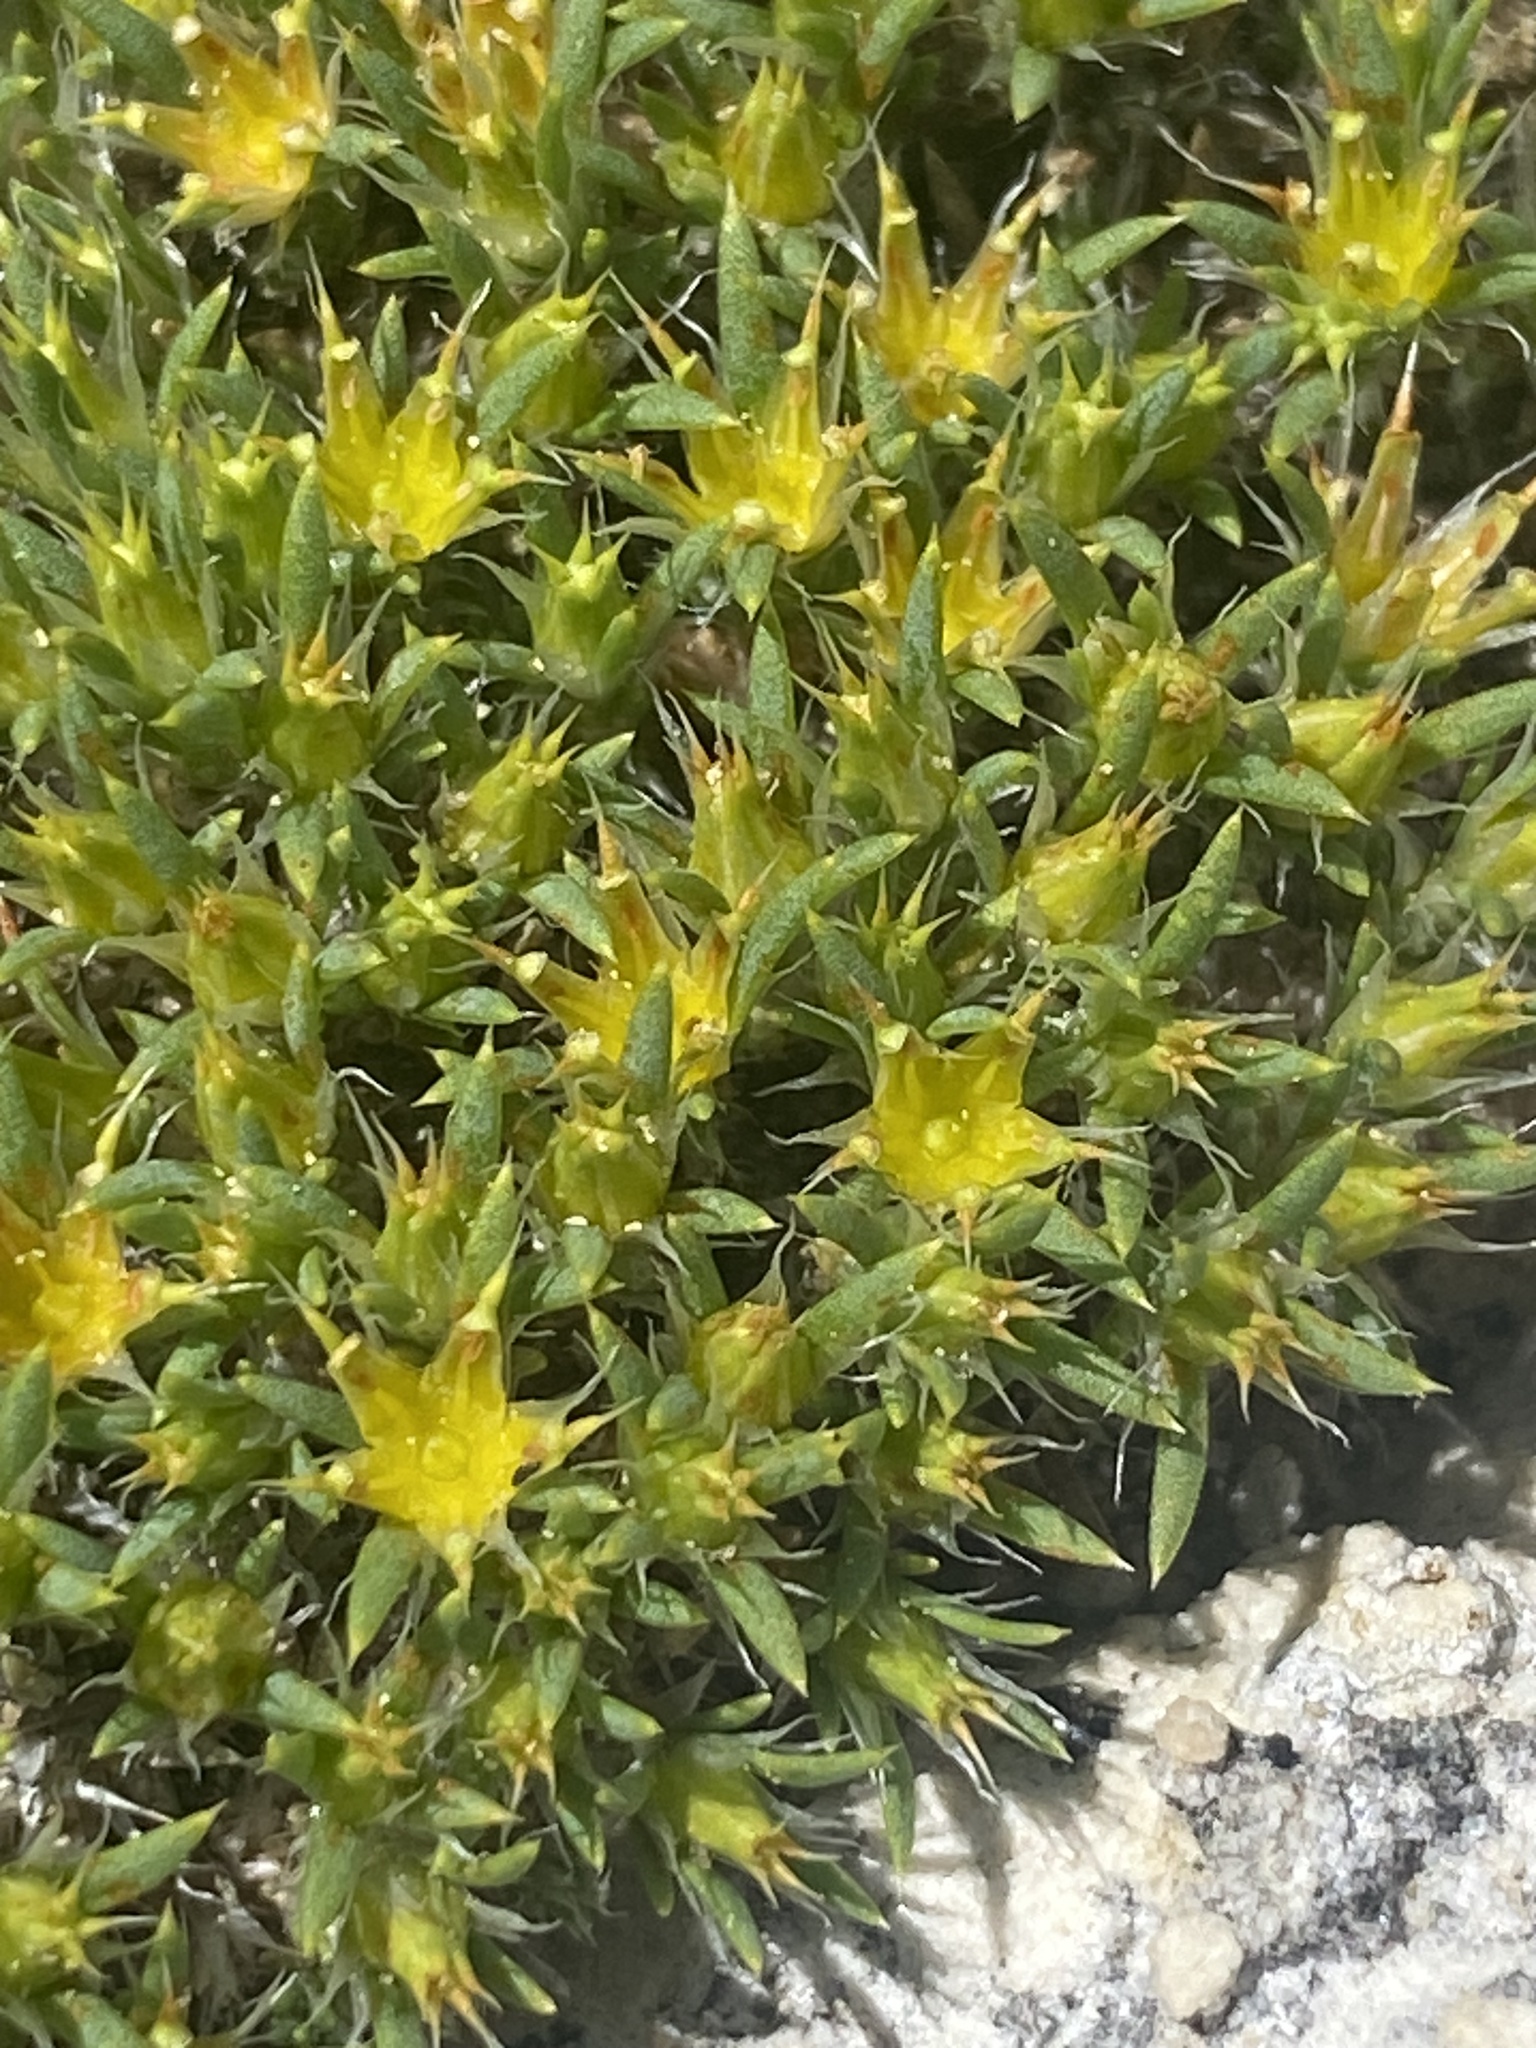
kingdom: Plantae
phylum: Tracheophyta
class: Magnoliopsida
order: Caryophyllales
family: Caryophyllaceae
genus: Paronychia
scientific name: Paronychia sessiliflora
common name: Creeping nailwort
